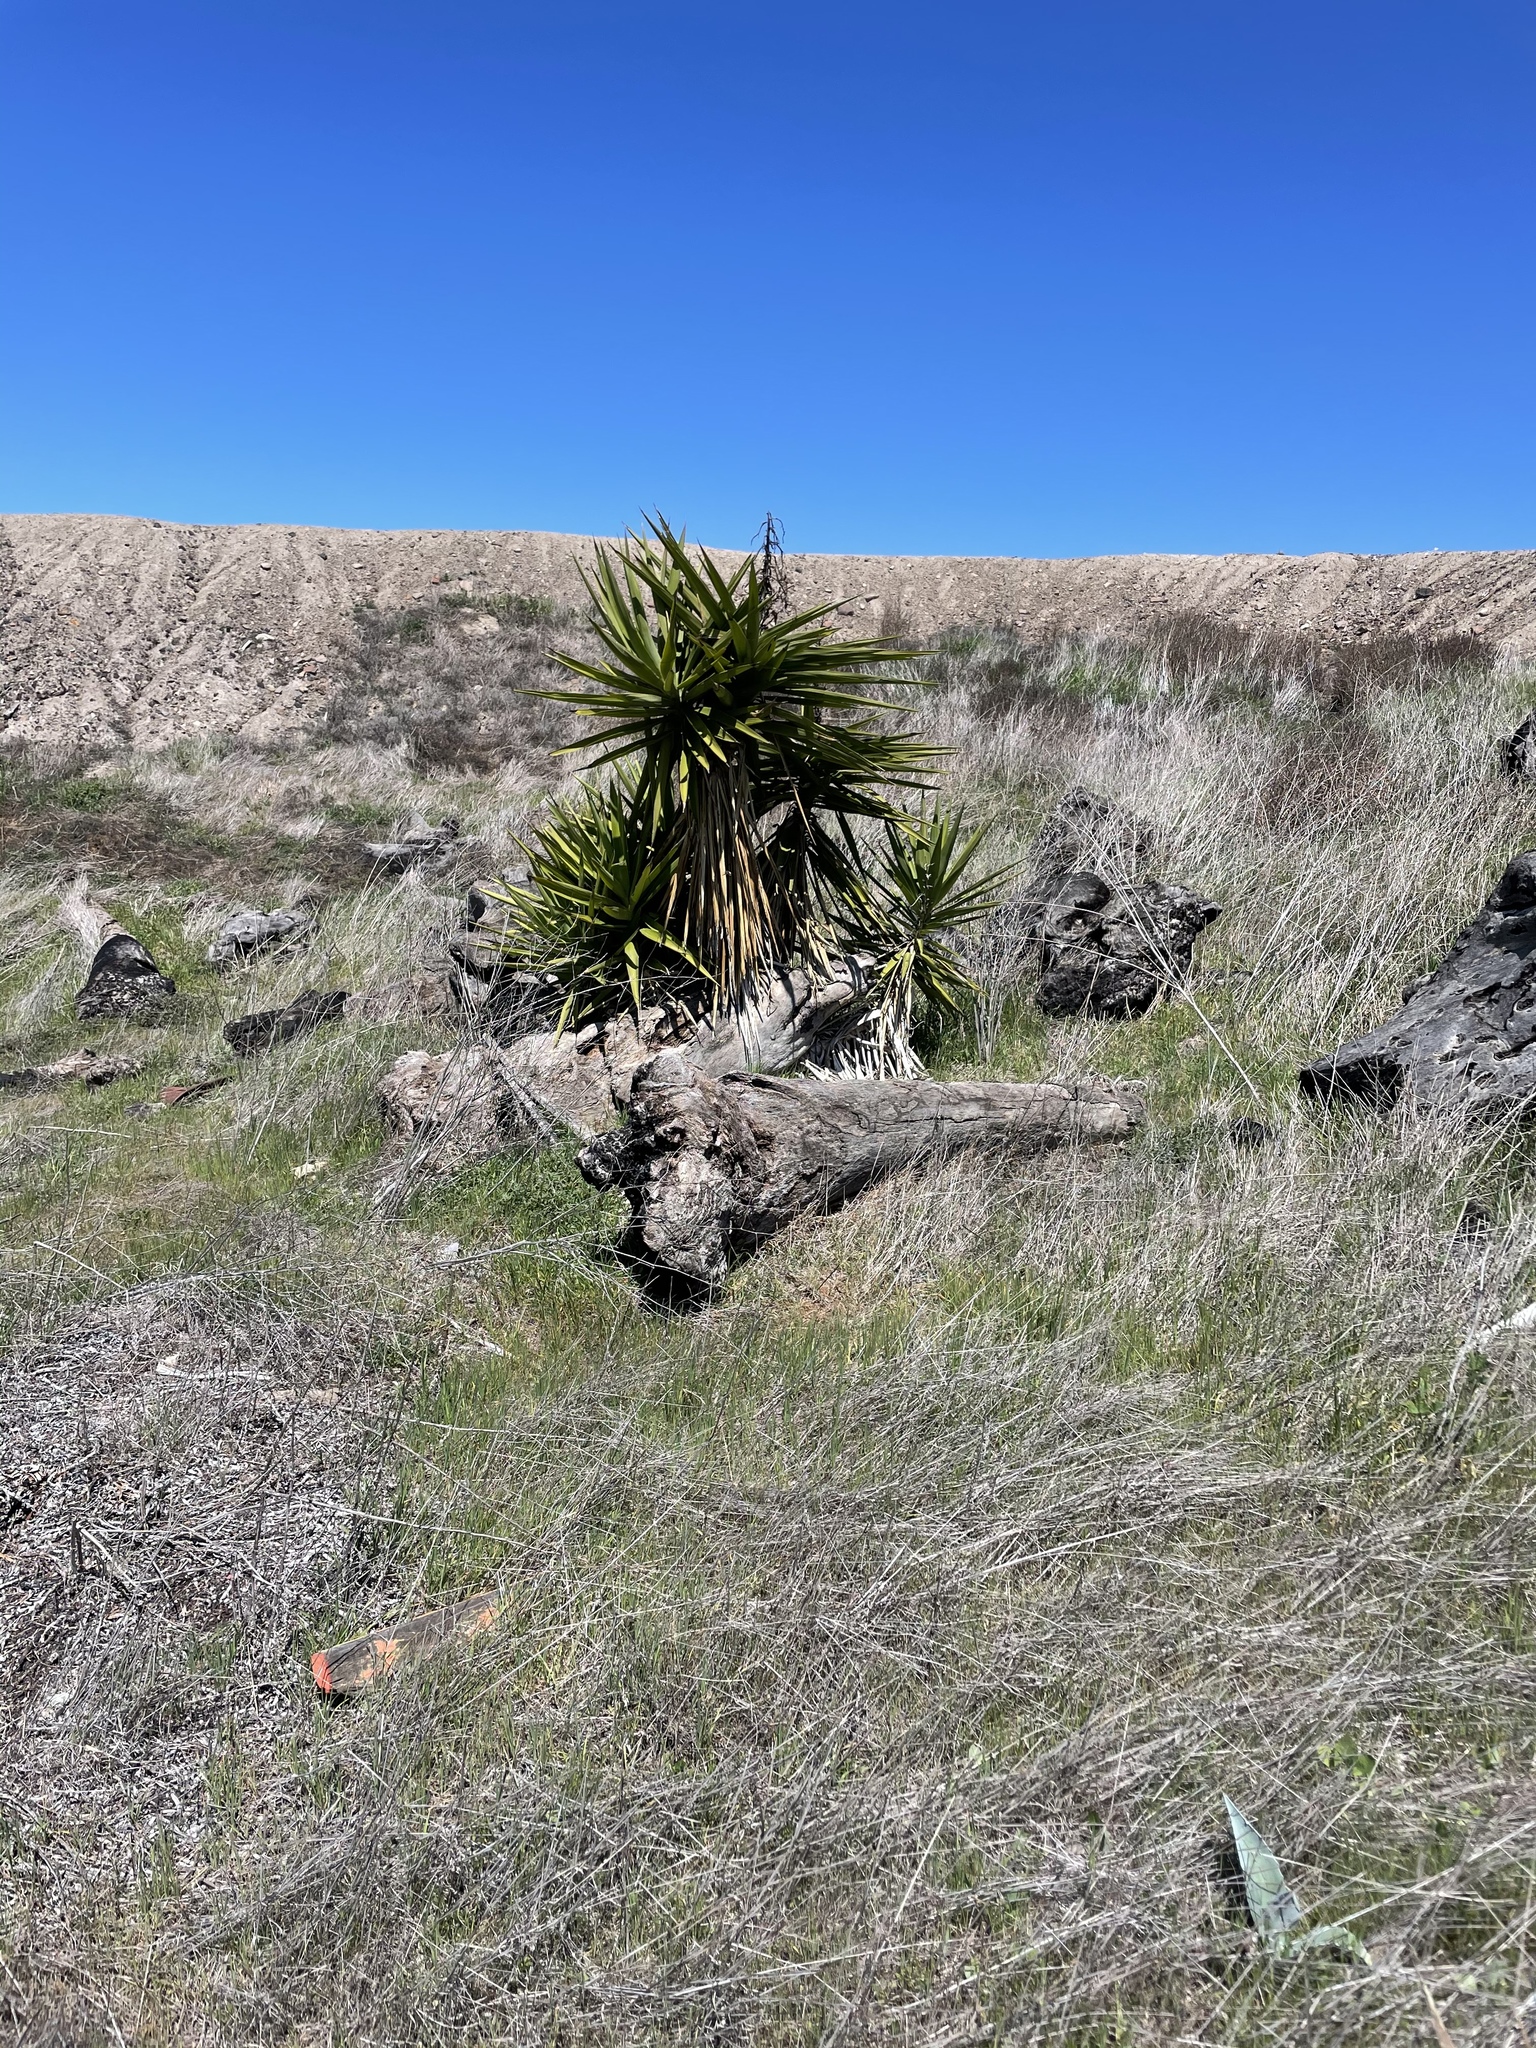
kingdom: Plantae
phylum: Tracheophyta
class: Liliopsida
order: Asparagales
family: Asparagaceae
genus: Yucca
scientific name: Yucca gigantea
